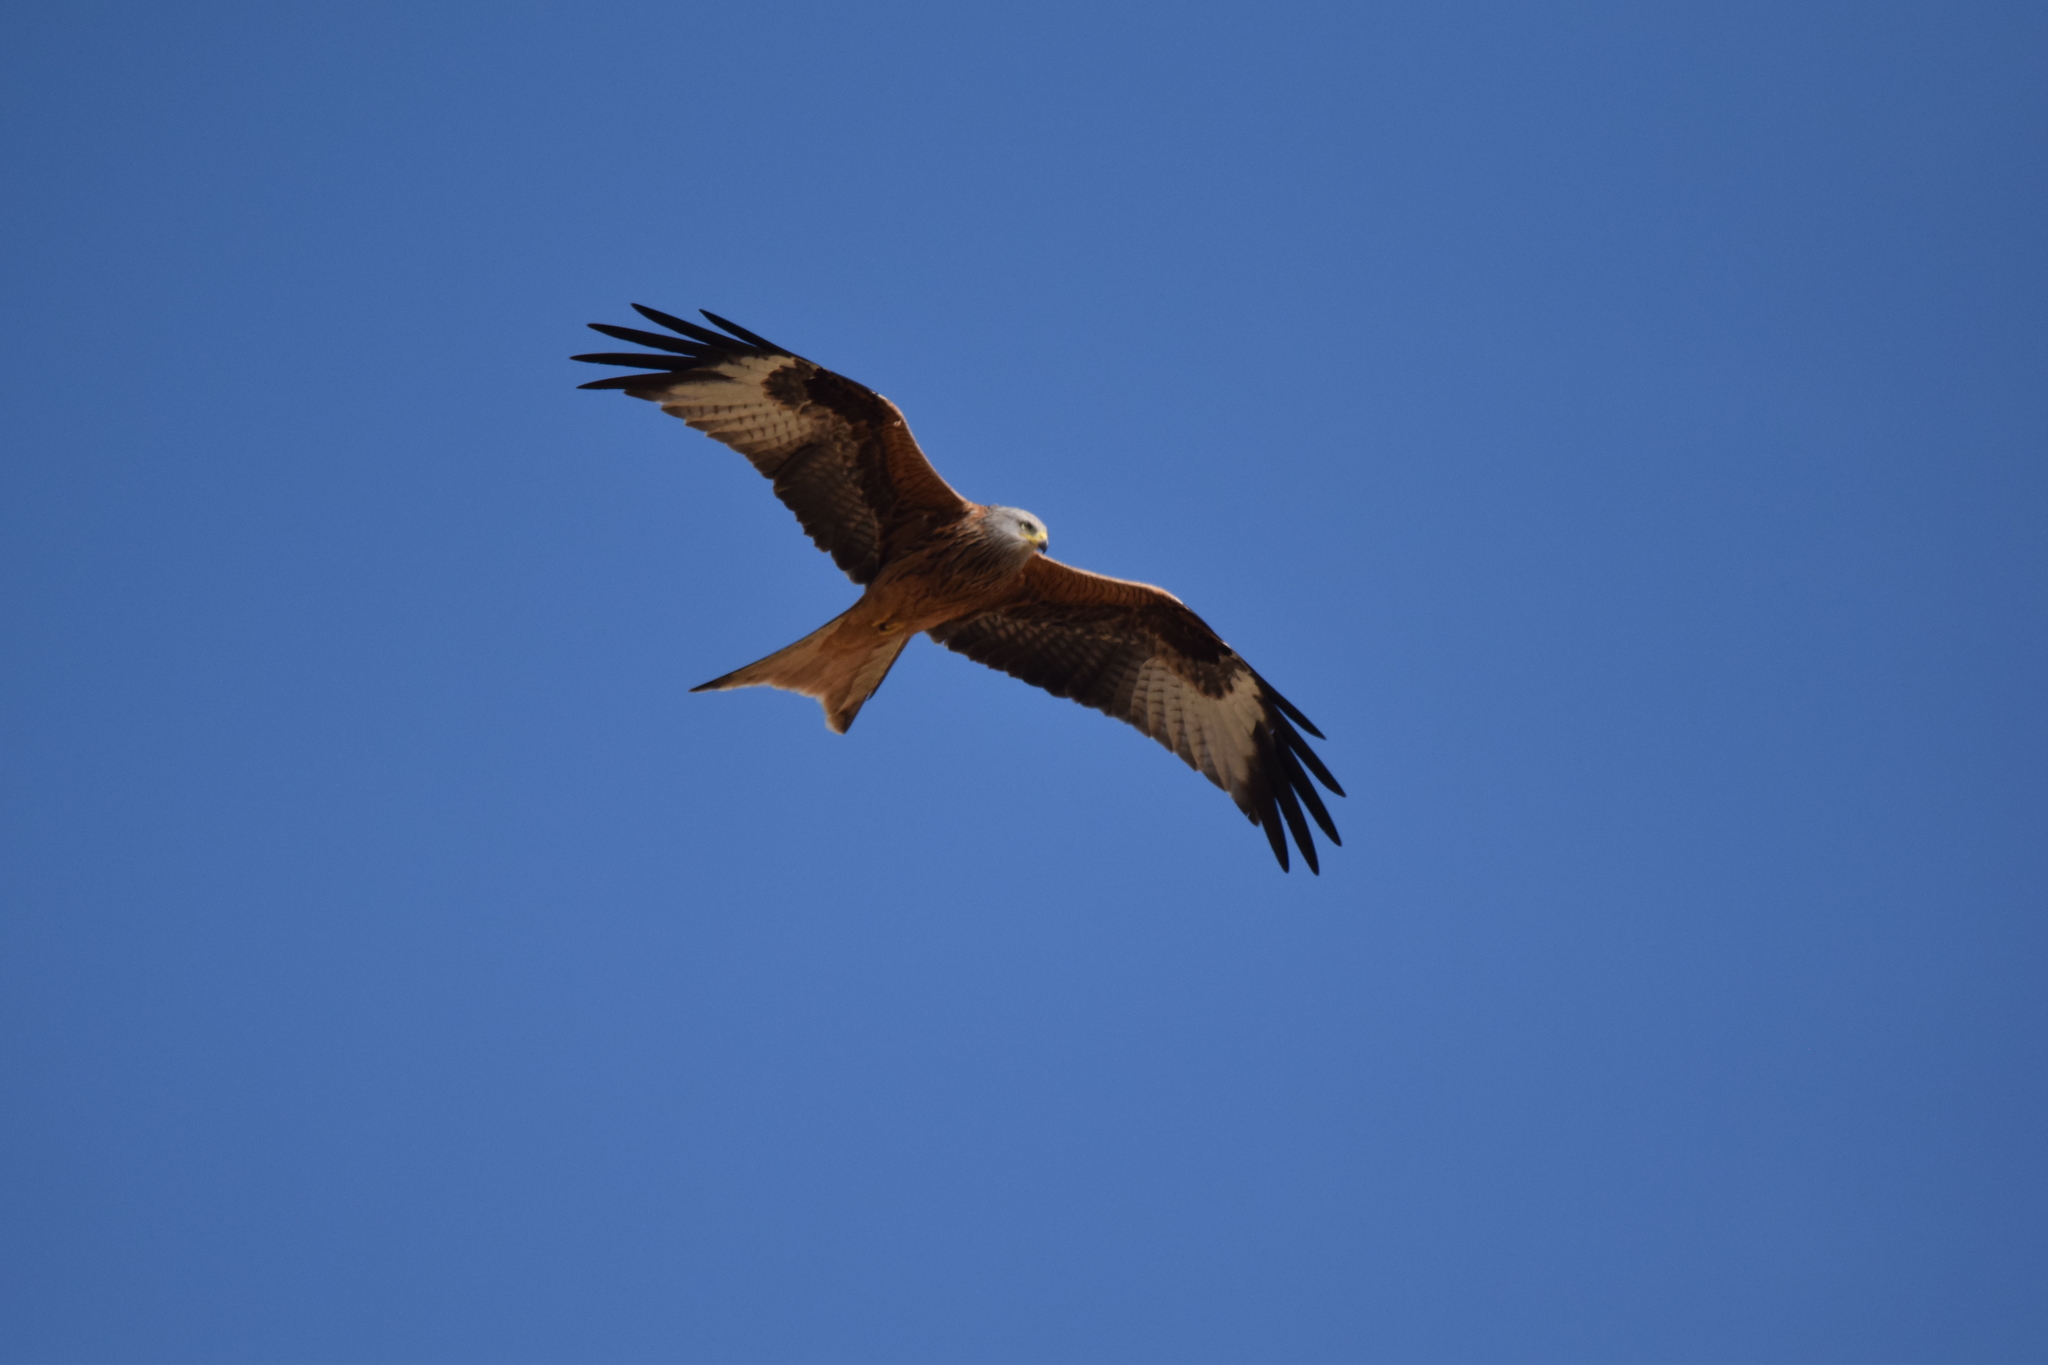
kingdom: Animalia
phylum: Chordata
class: Aves
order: Accipitriformes
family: Accipitridae
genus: Milvus
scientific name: Milvus milvus
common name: Red kite
